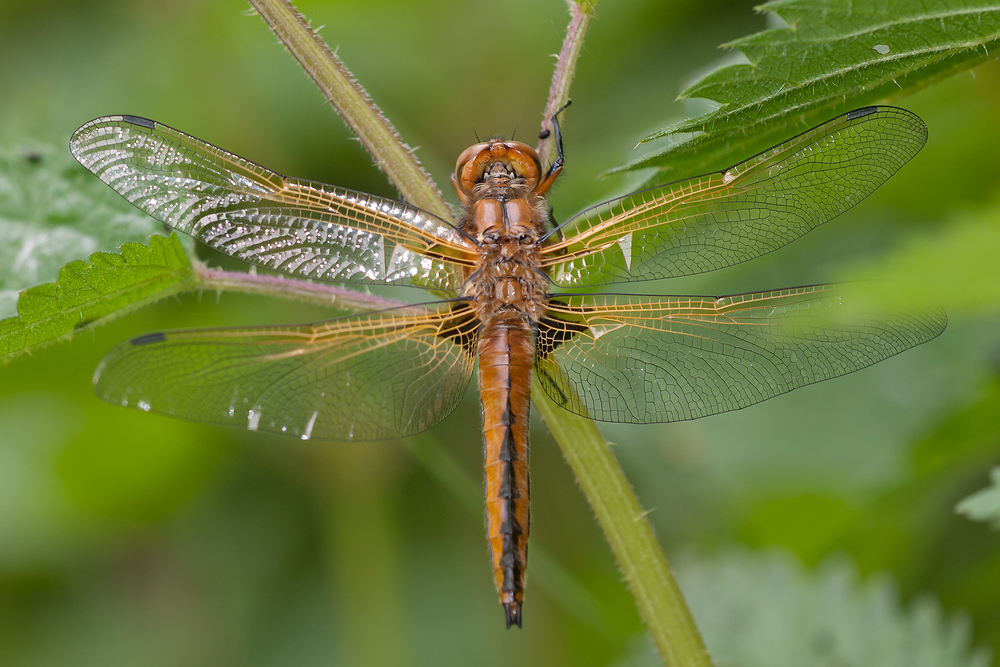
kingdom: Animalia
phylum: Arthropoda
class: Insecta
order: Odonata
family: Libellulidae
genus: Libellula
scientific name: Libellula fulva
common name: Blue chaser
